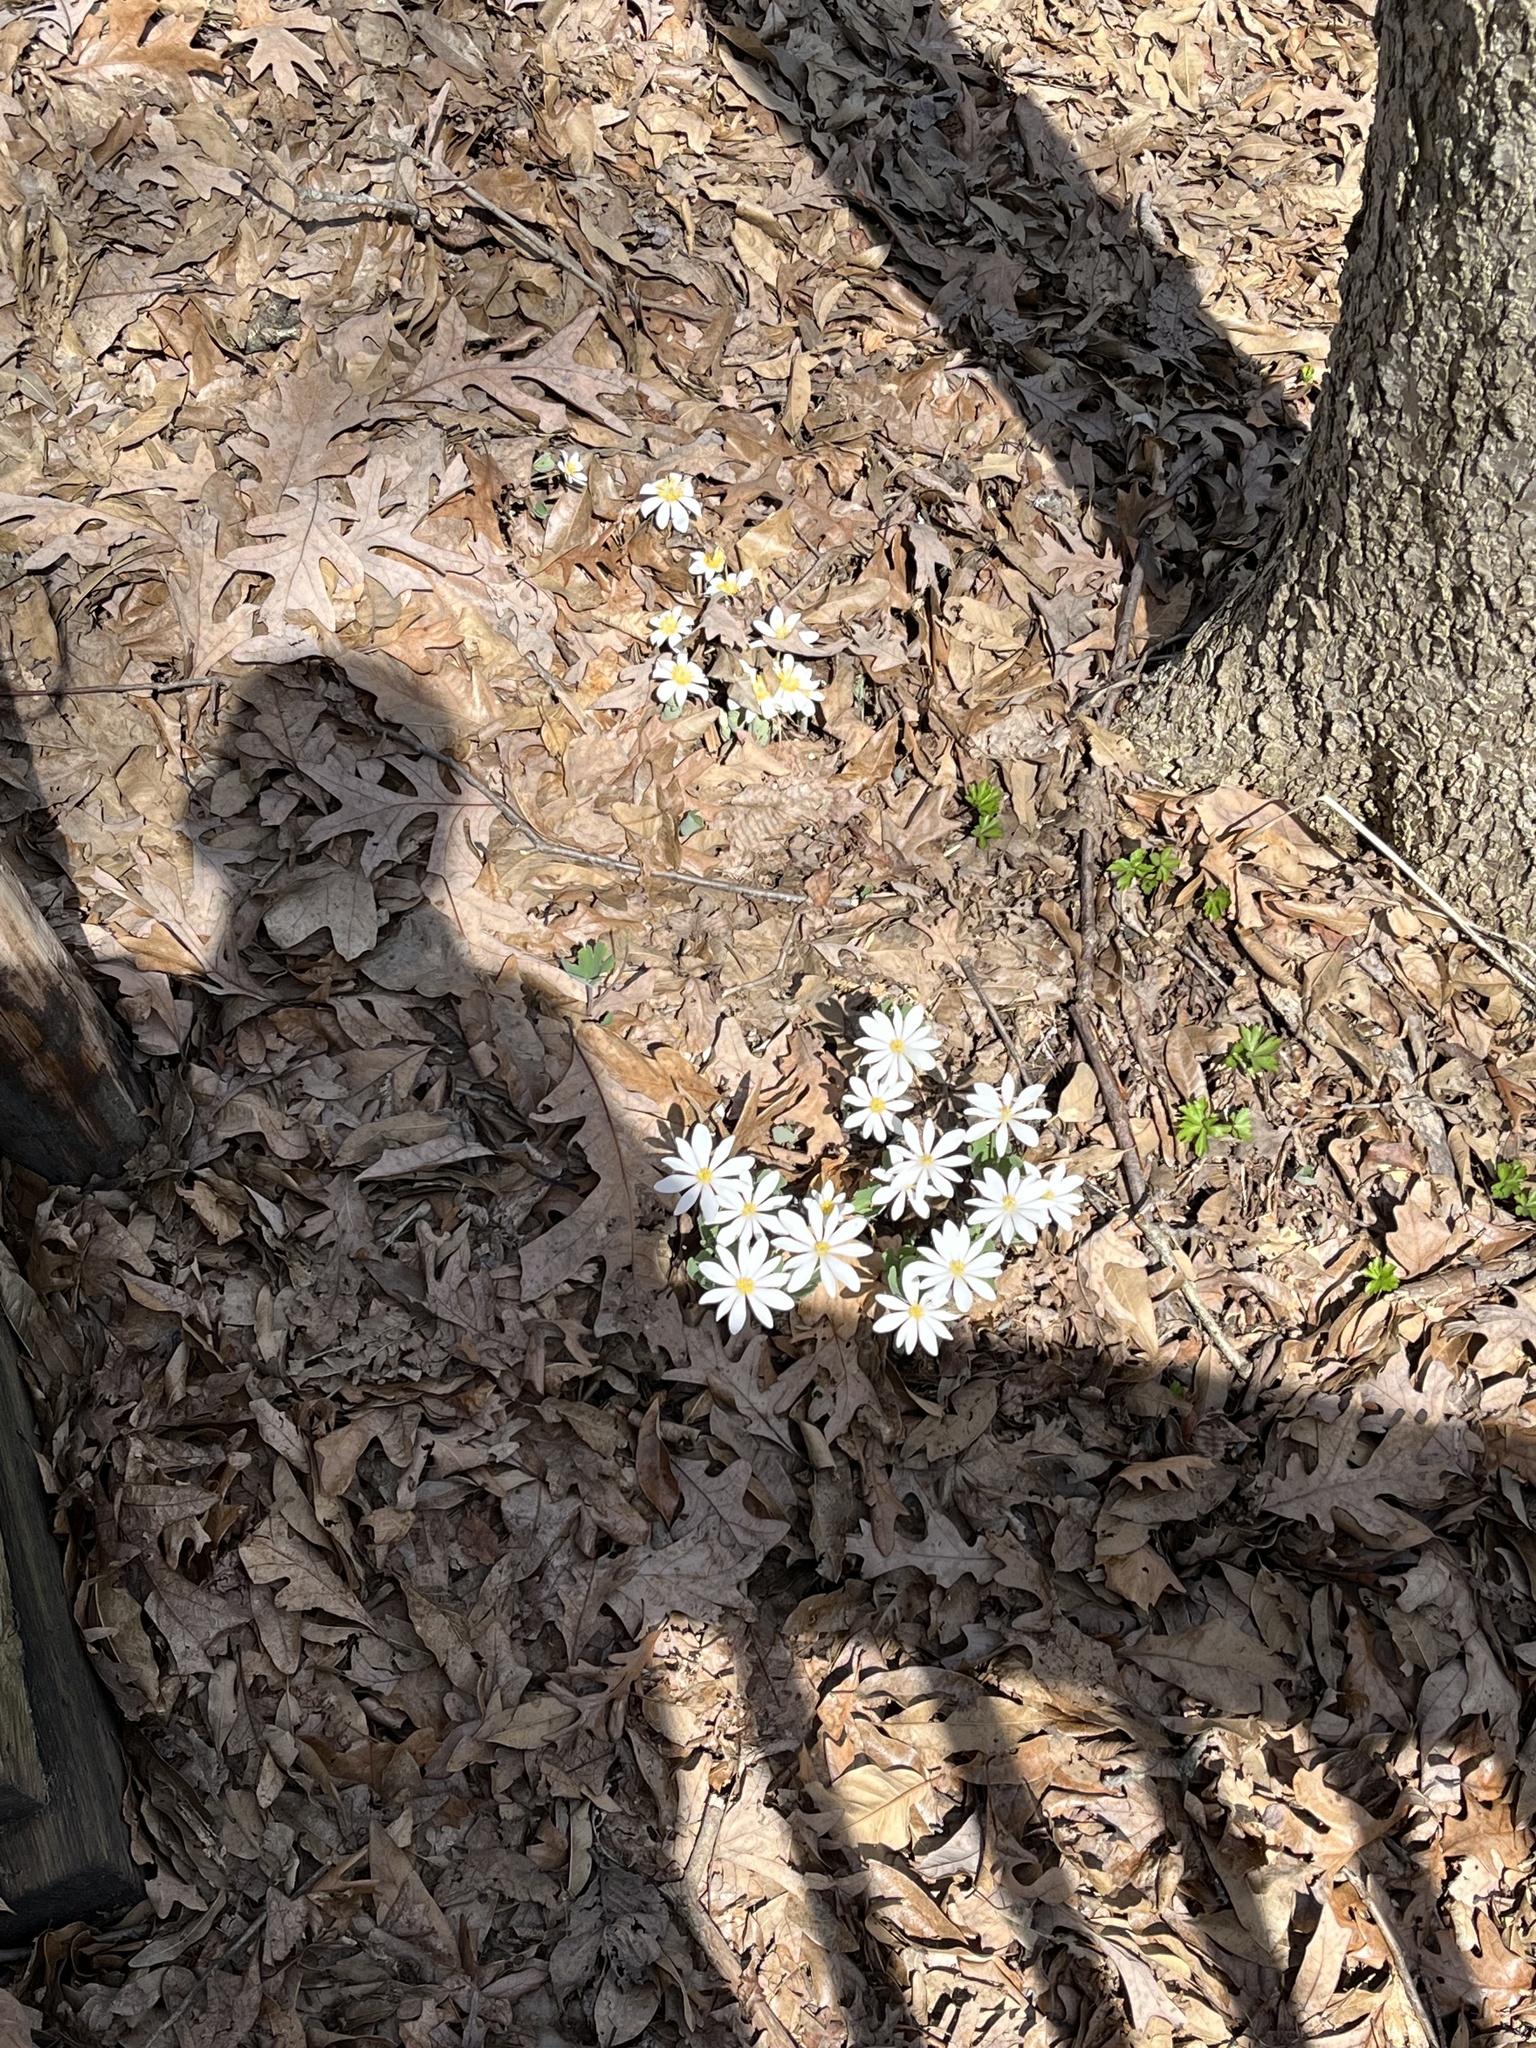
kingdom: Plantae
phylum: Tracheophyta
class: Magnoliopsida
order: Ranunculales
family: Papaveraceae
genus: Sanguinaria
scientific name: Sanguinaria canadensis
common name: Bloodroot
